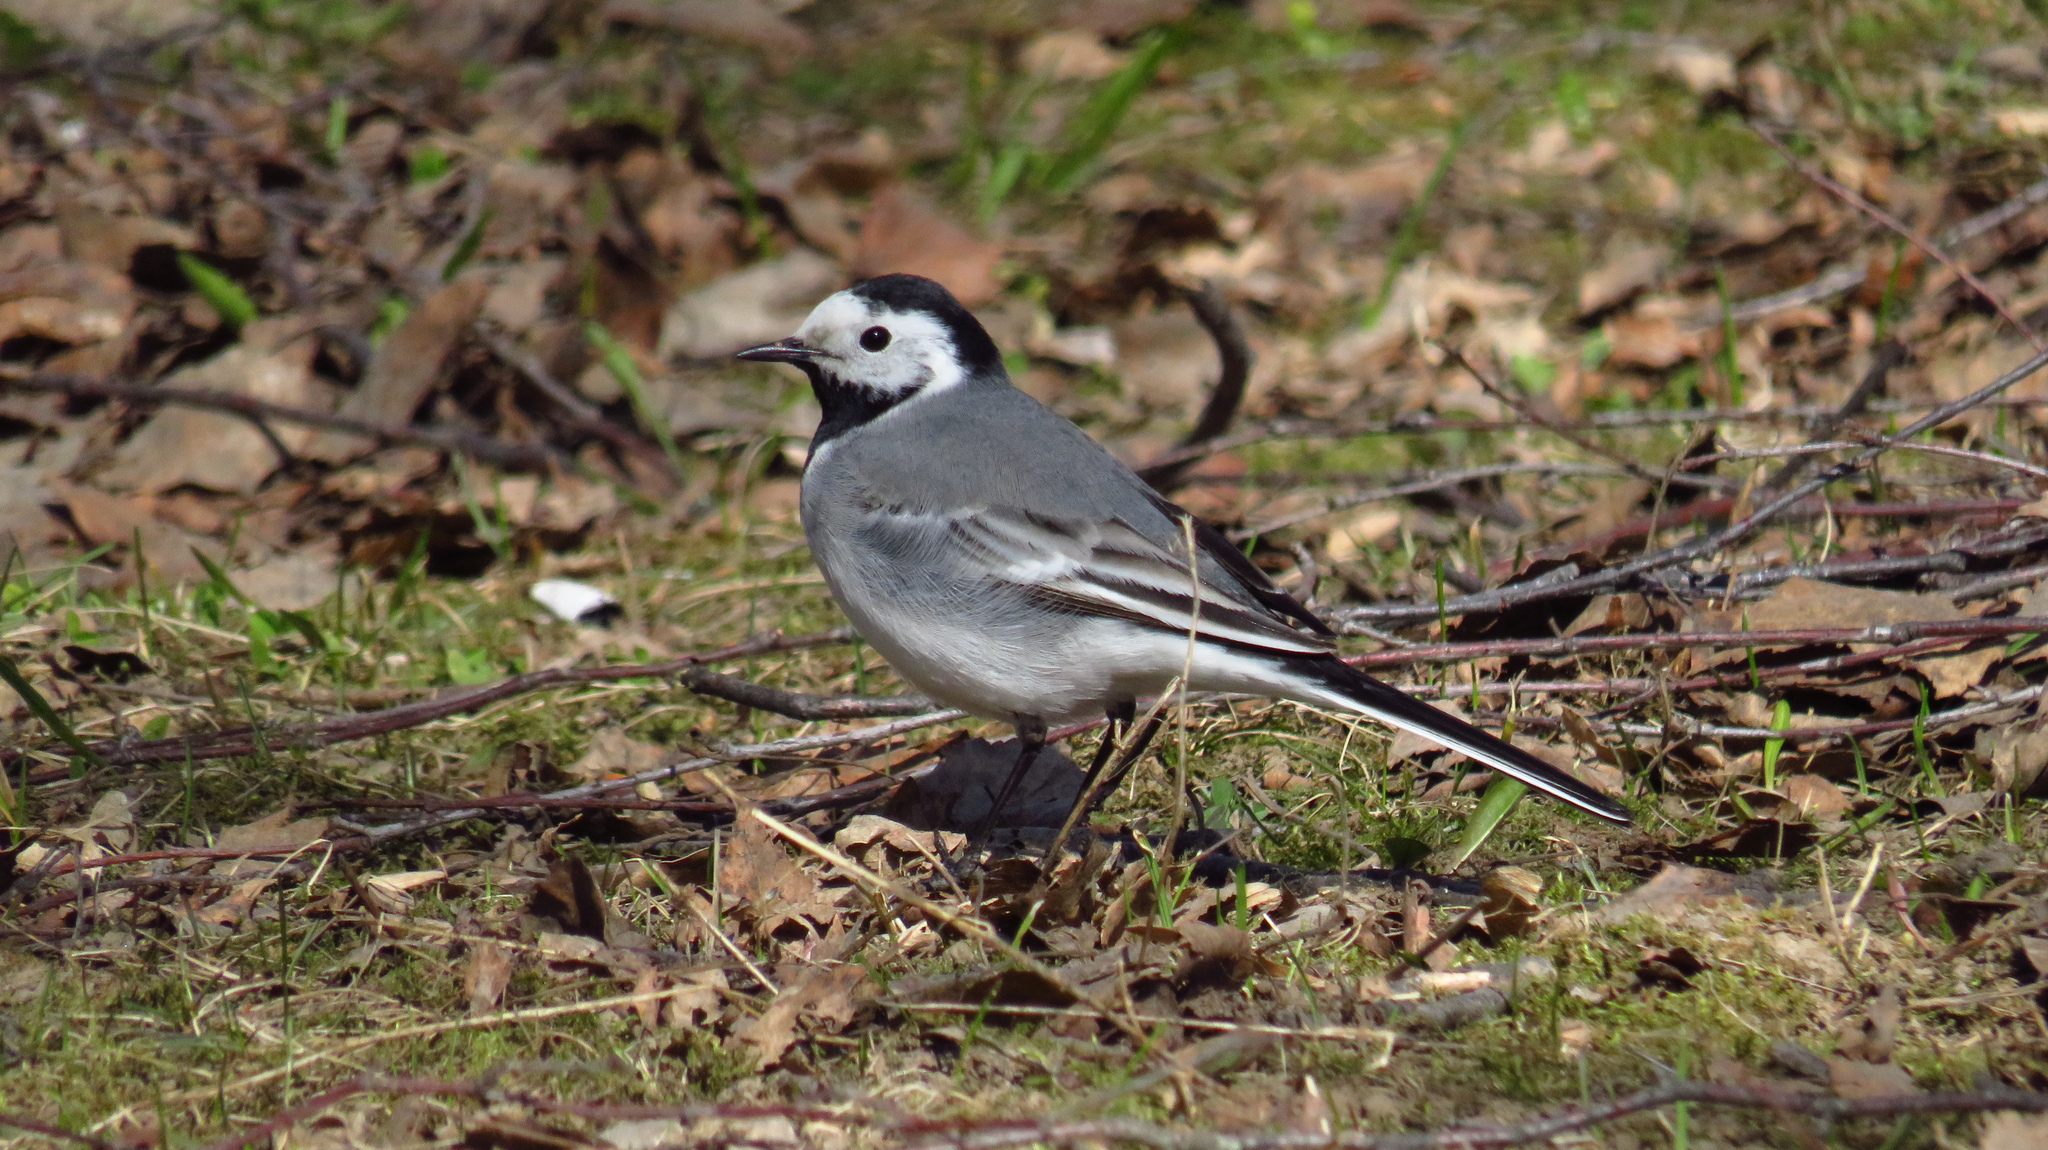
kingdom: Animalia
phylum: Chordata
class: Aves
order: Passeriformes
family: Motacillidae
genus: Motacilla
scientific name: Motacilla alba
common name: White wagtail
